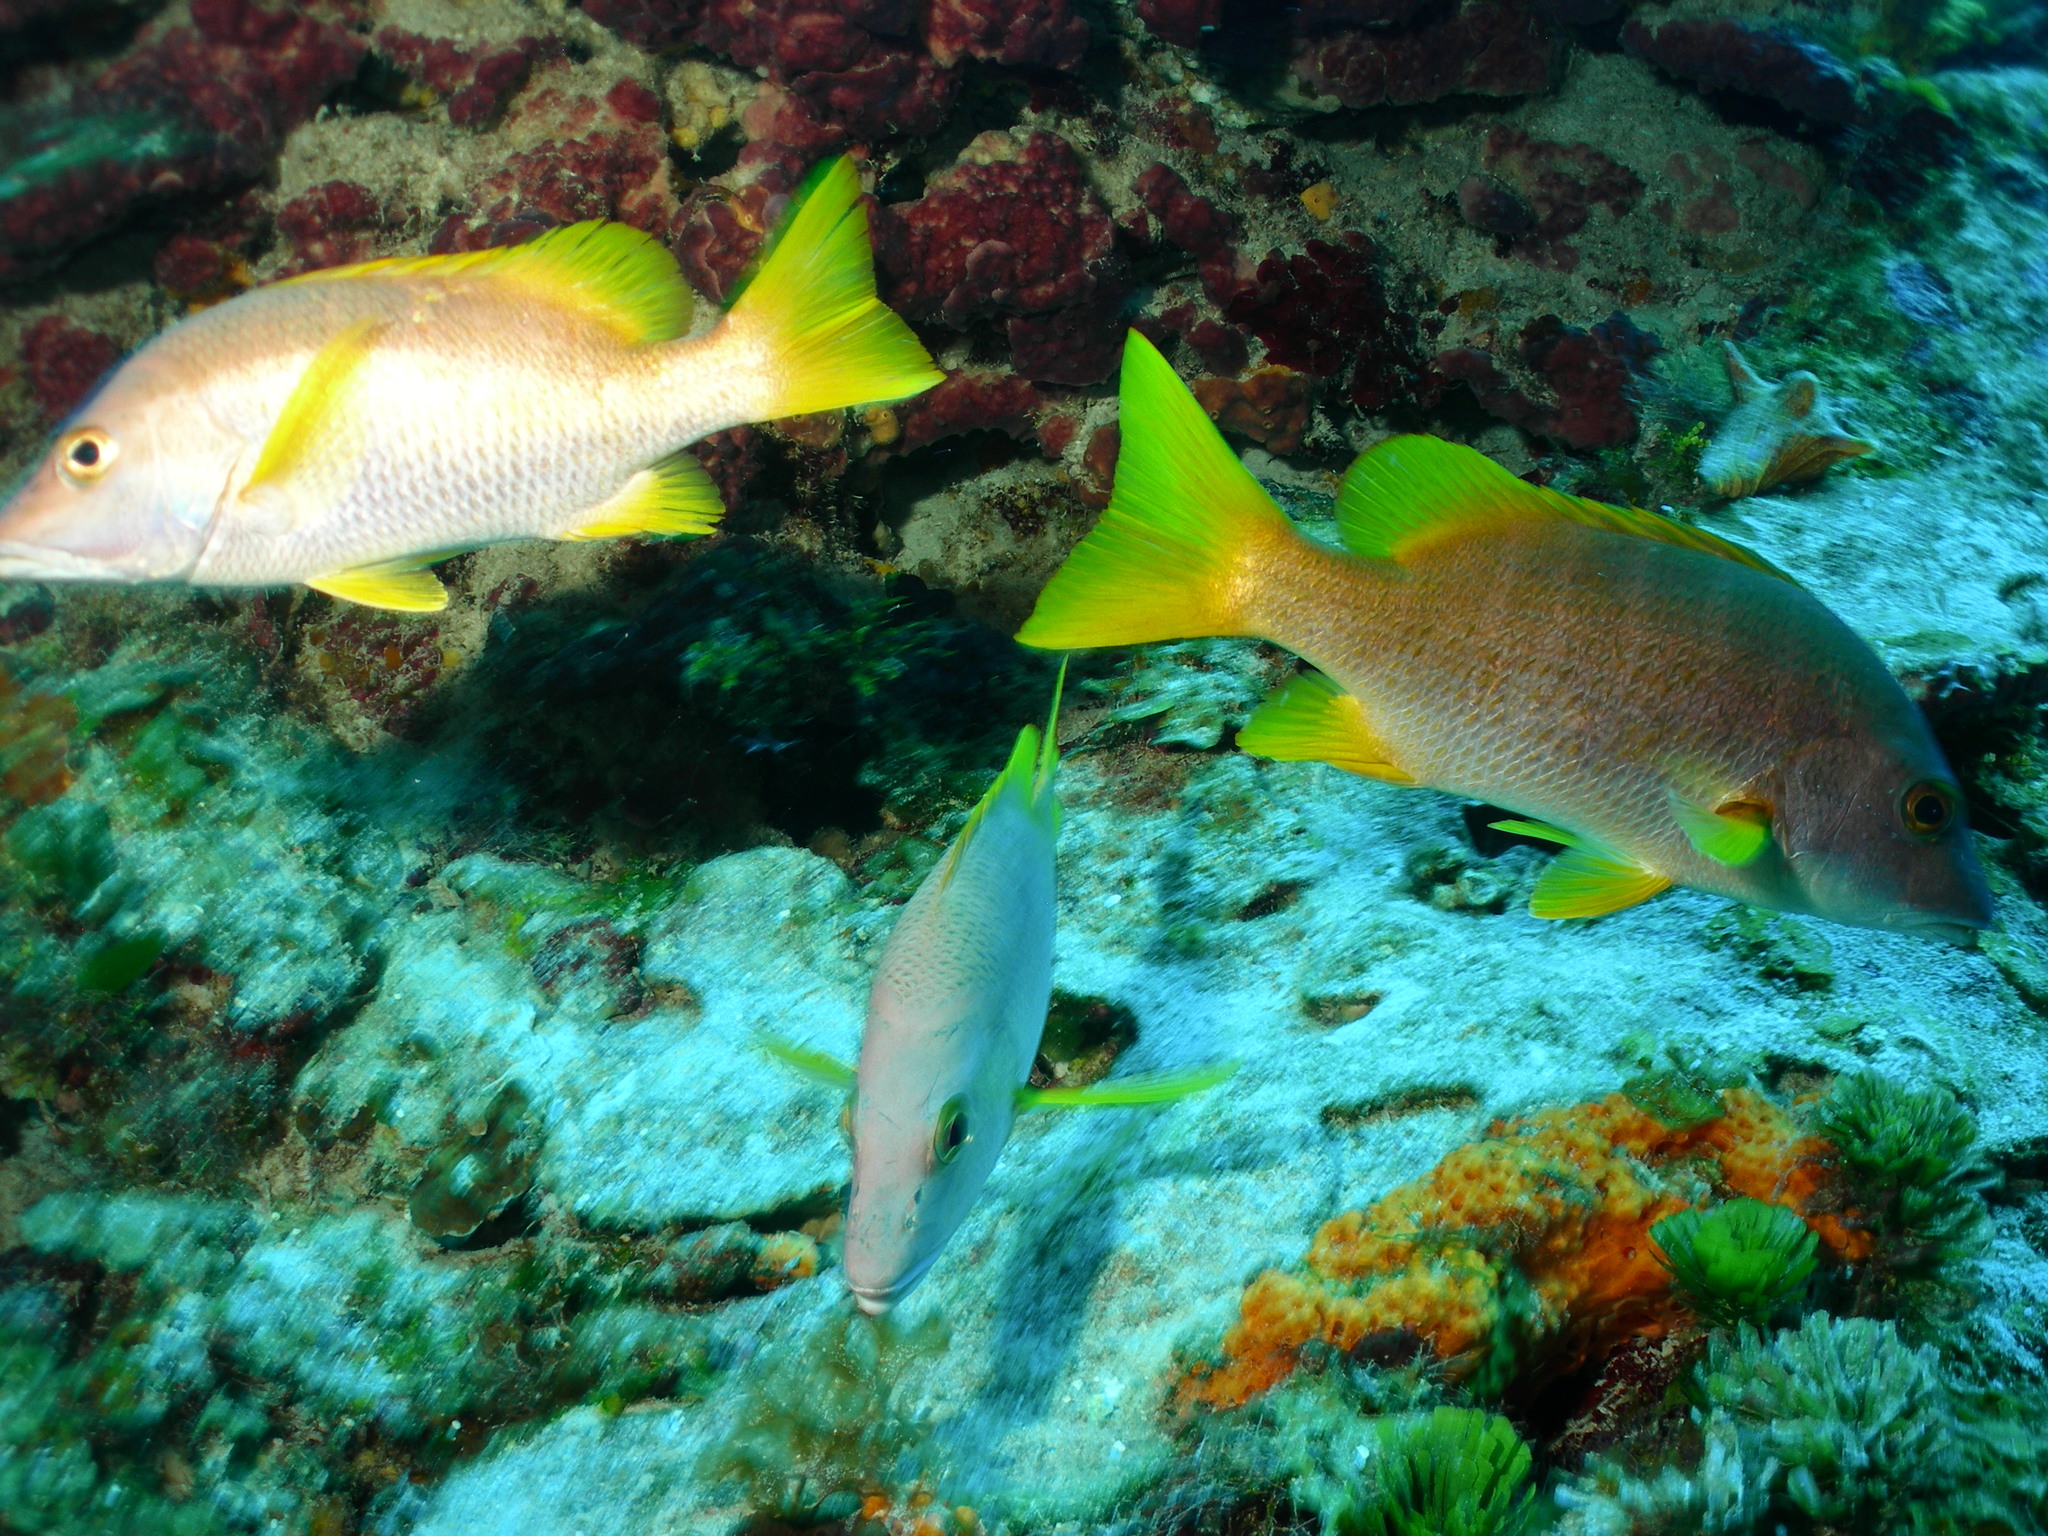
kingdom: Animalia
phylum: Chordata
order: Perciformes
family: Lutjanidae
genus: Lutjanus
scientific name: Lutjanus apodus
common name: Schoolmaster
